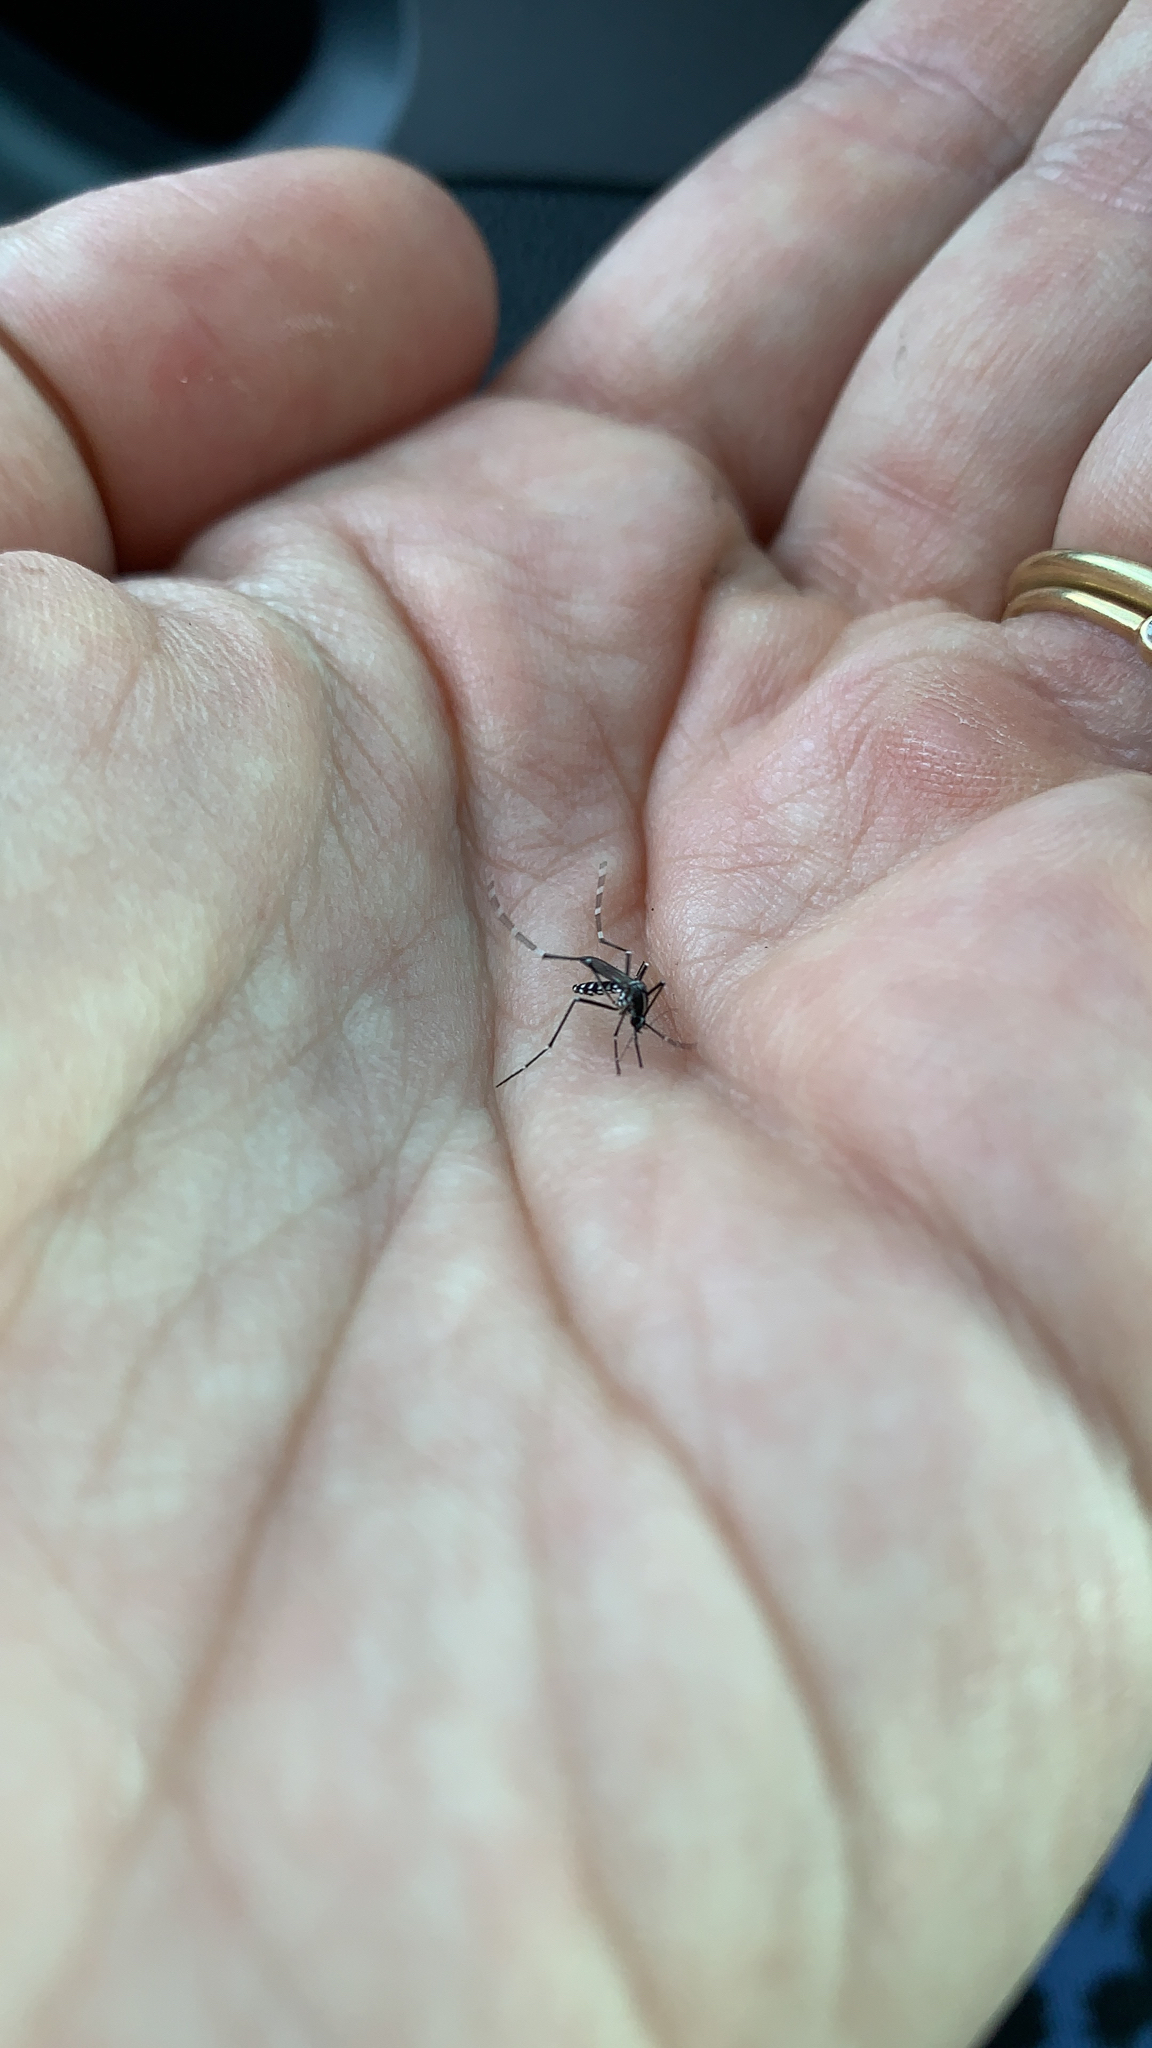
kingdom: Animalia
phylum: Arthropoda
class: Insecta
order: Diptera
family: Culicidae
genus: Aedes
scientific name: Aedes albopictus
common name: Tiger mosquito
